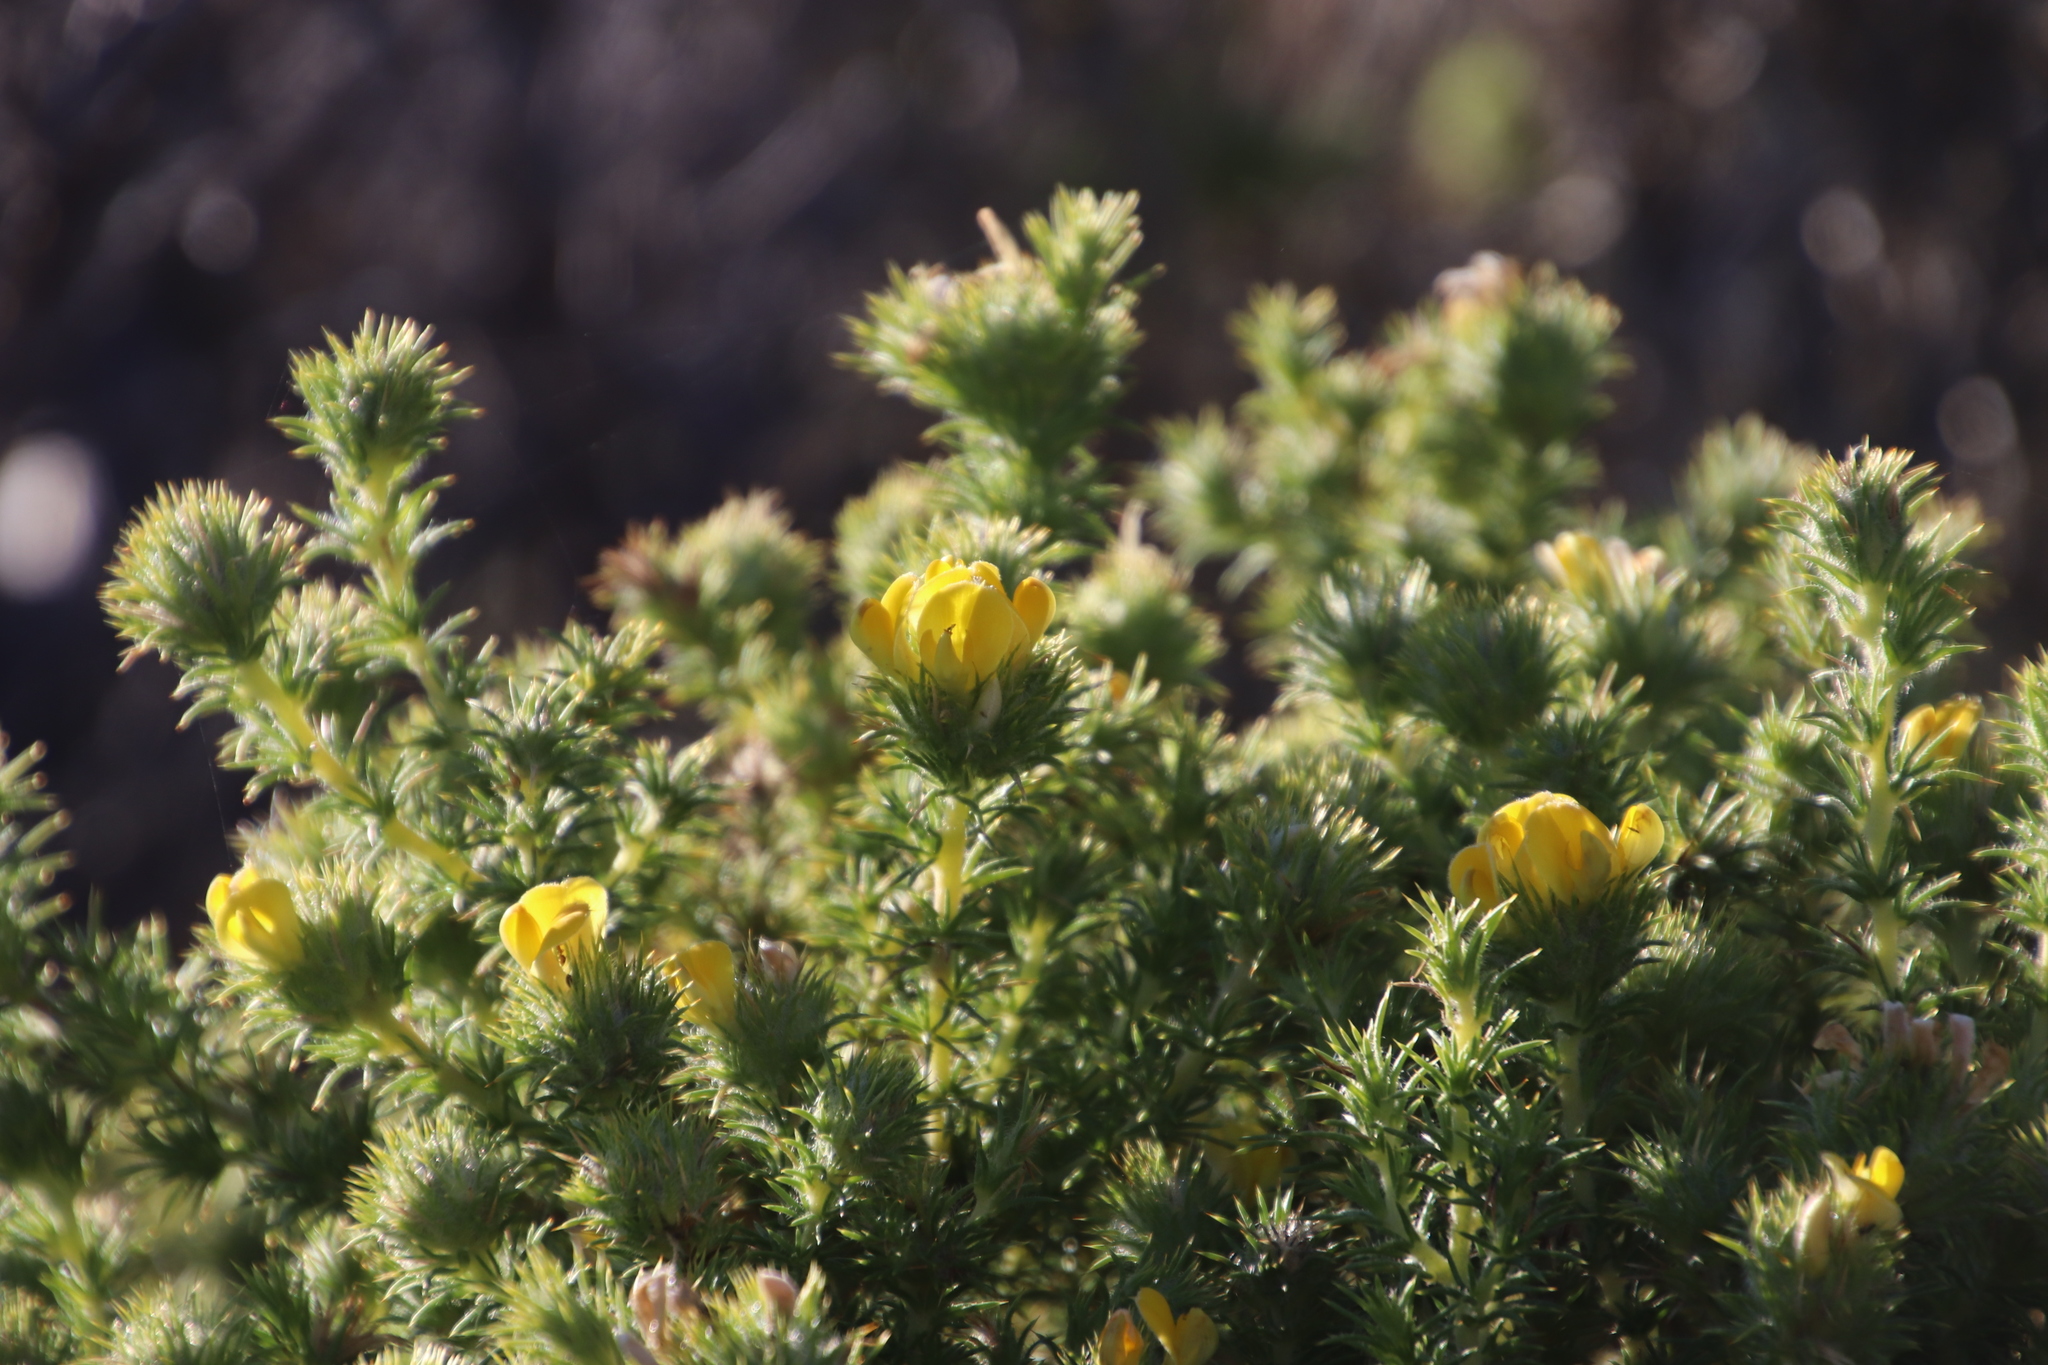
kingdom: Plantae
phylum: Tracheophyta
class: Magnoliopsida
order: Fabales
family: Fabaceae
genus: Aspalathus
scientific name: Aspalathus chenopoda
